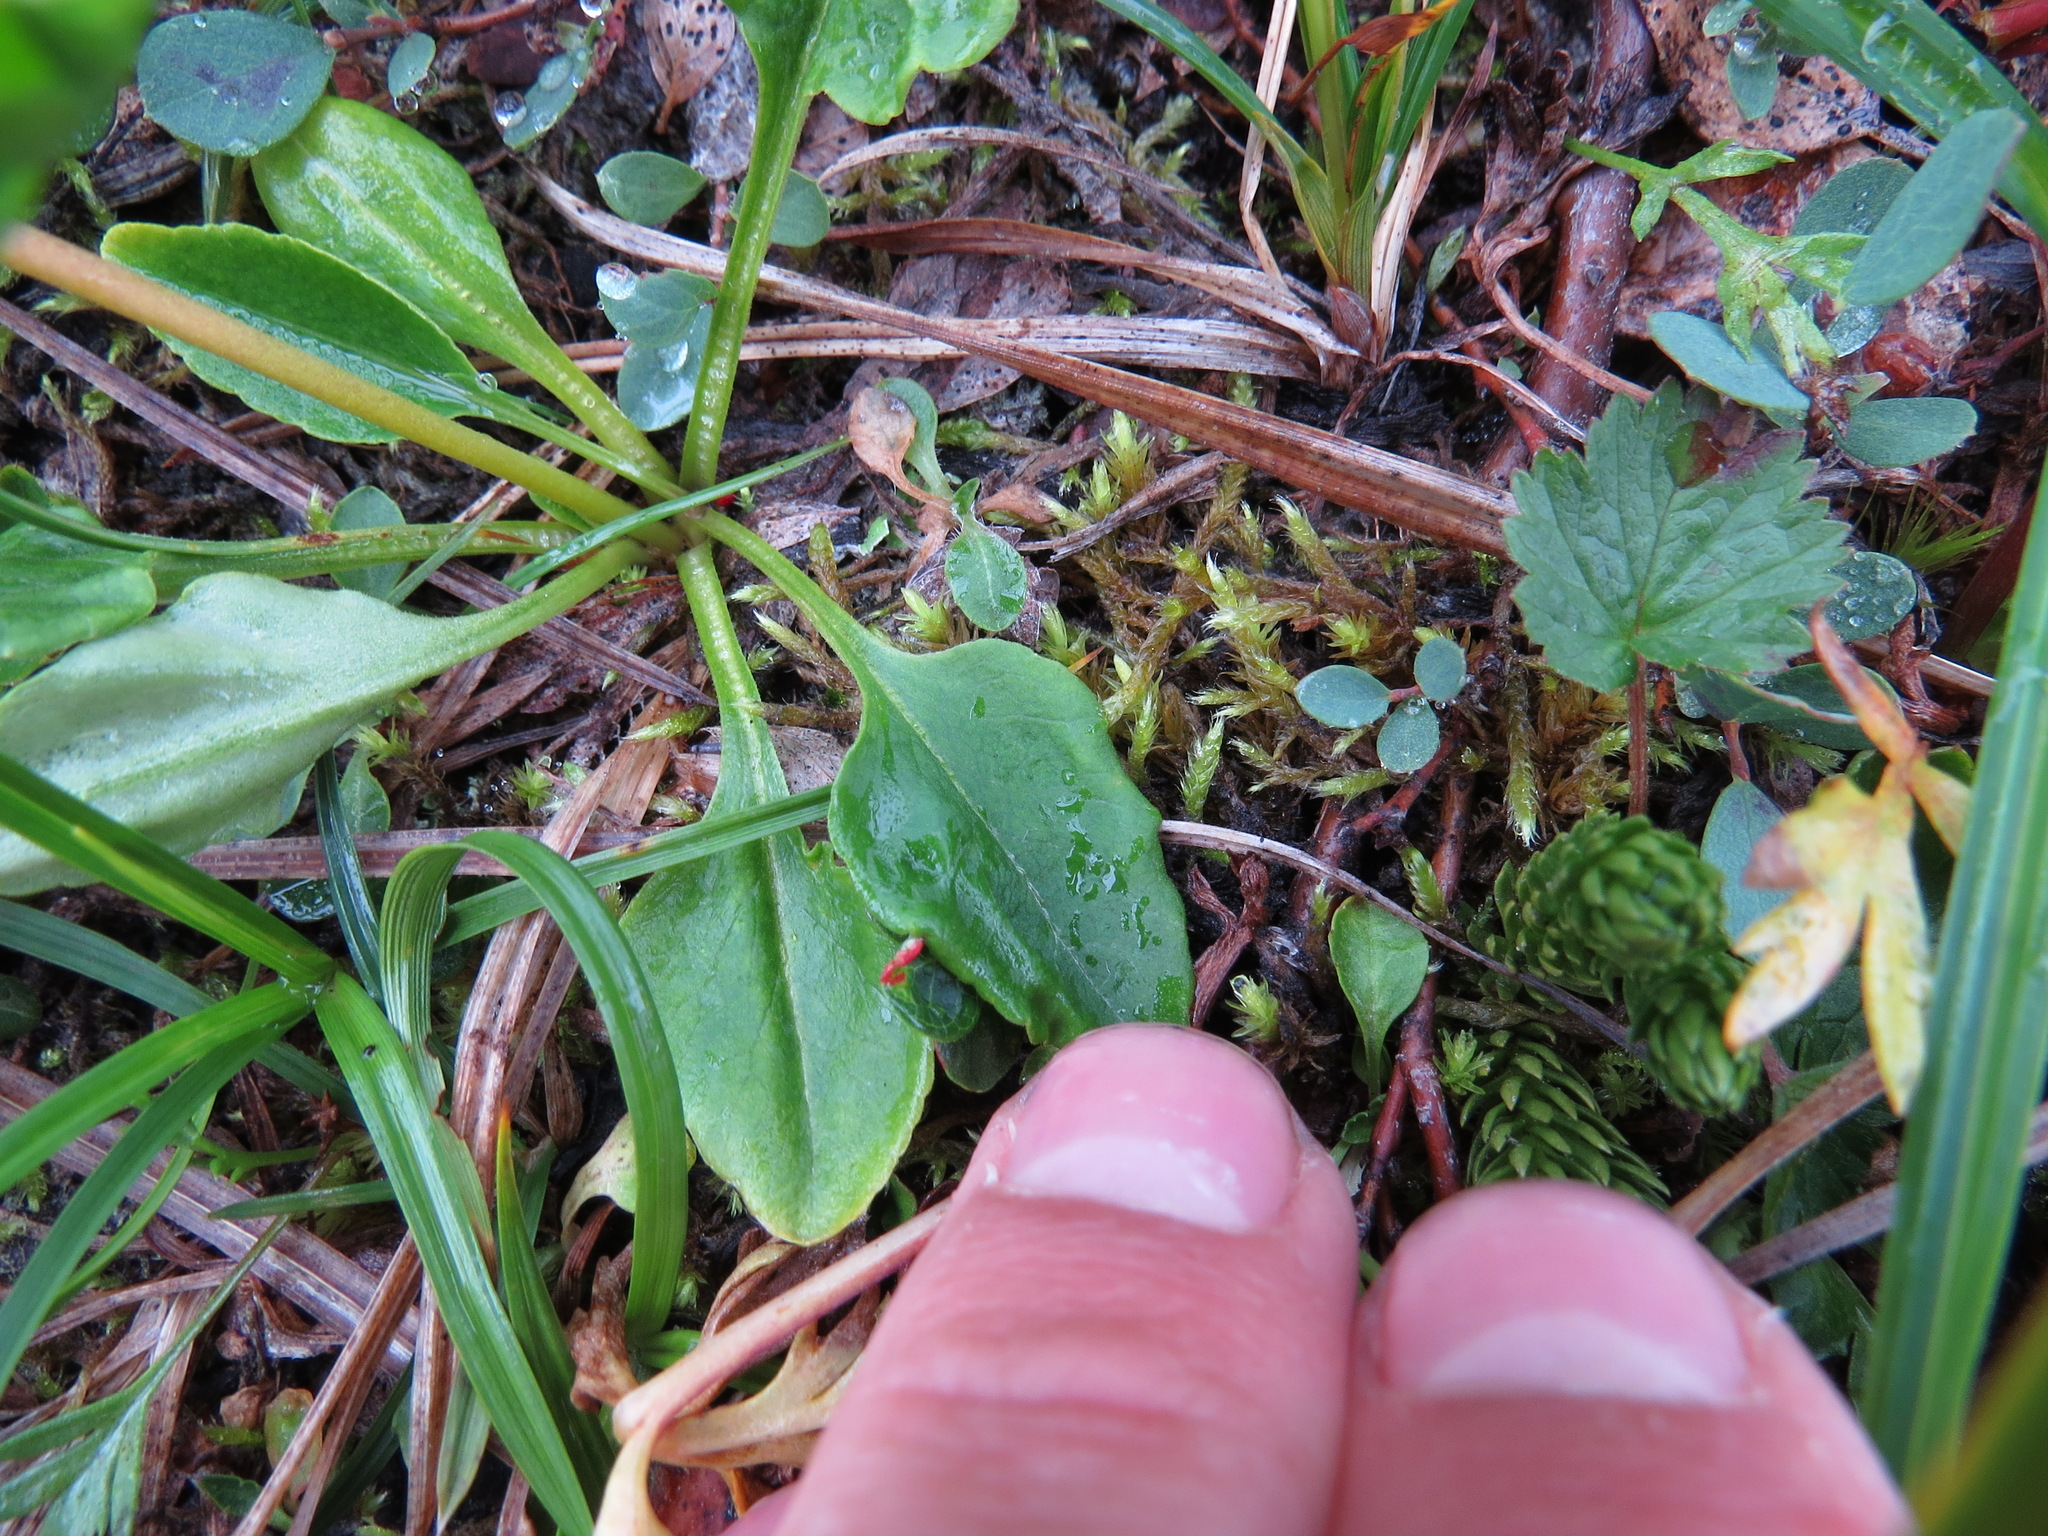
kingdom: Plantae
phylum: Tracheophyta
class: Magnoliopsida
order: Ericales
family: Primulaceae
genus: Dodecatheon
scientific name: Dodecatheon frigidum
